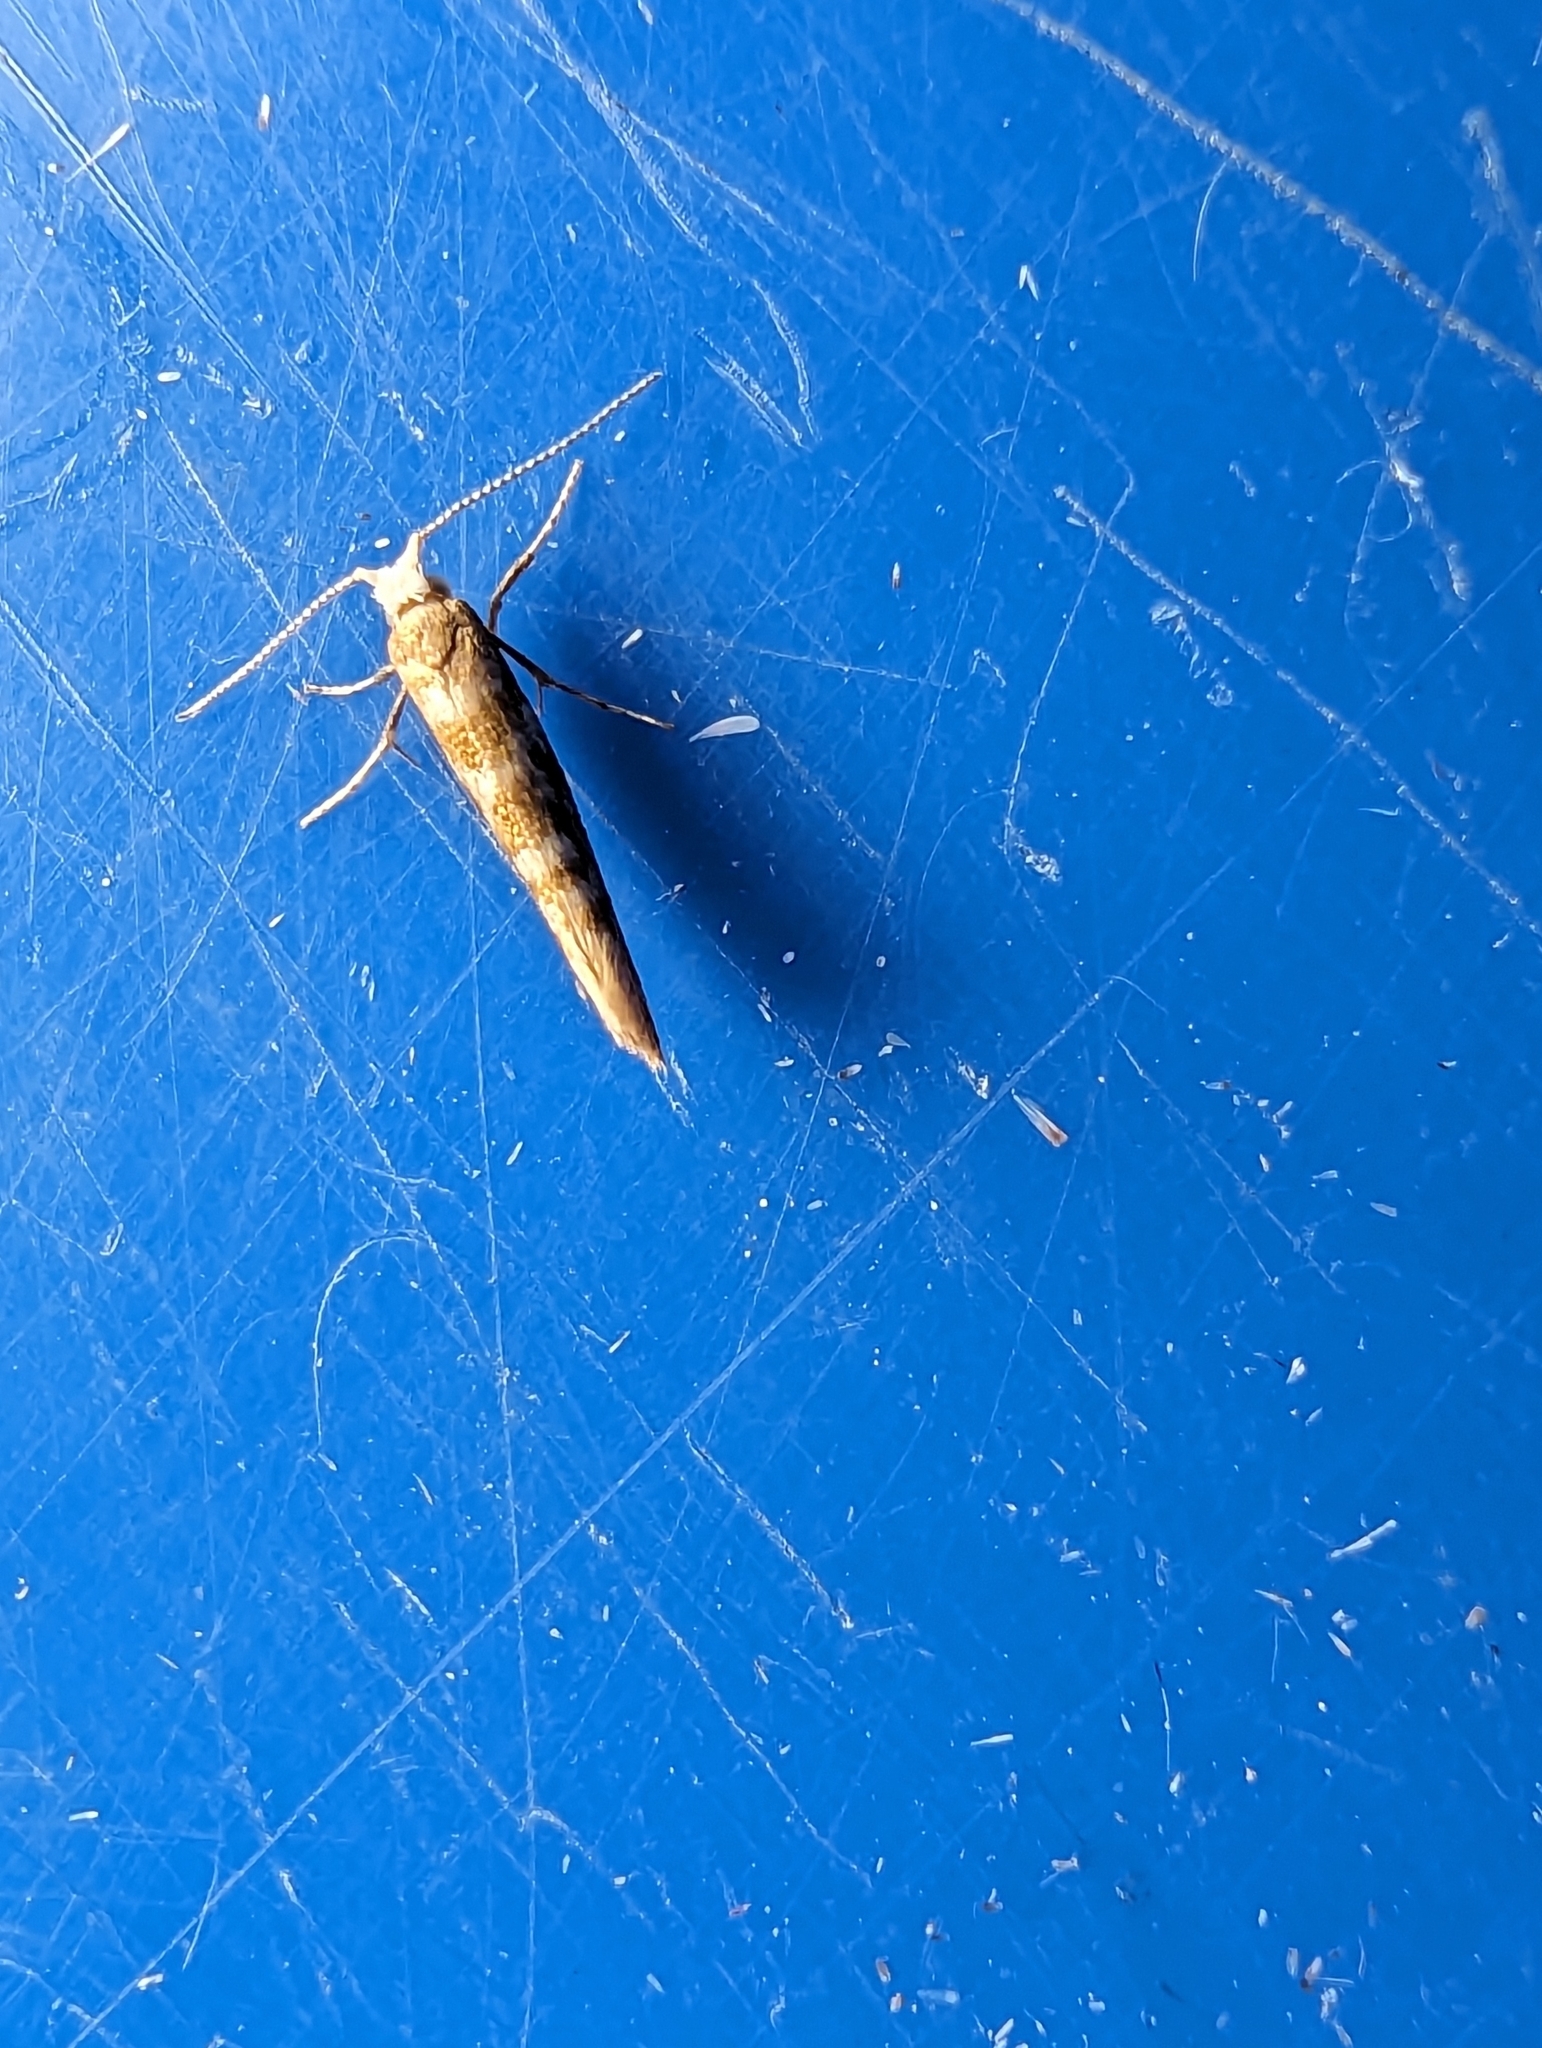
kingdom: Animalia
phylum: Arthropoda
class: Insecta
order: Lepidoptera
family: Argyresthiidae
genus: Argyresthia
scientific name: Argyresthia goedartella
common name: Golden argent
